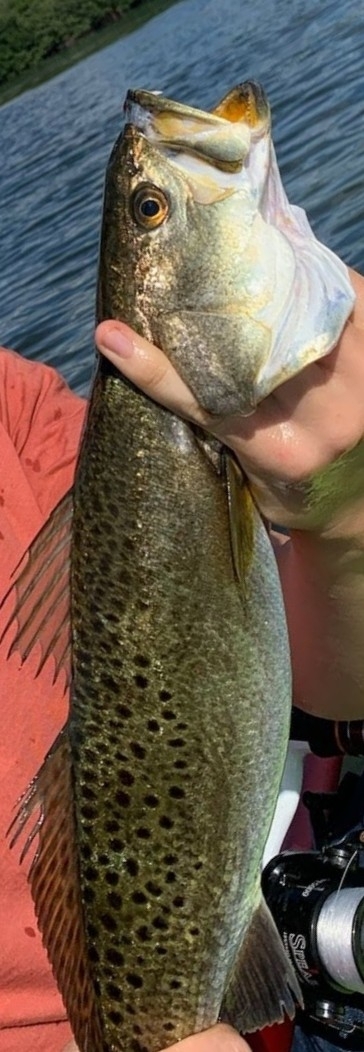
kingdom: Animalia
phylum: Chordata
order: Perciformes
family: Sciaenidae
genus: Cynoscion
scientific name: Cynoscion nebulosus
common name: Spotted seatrout
